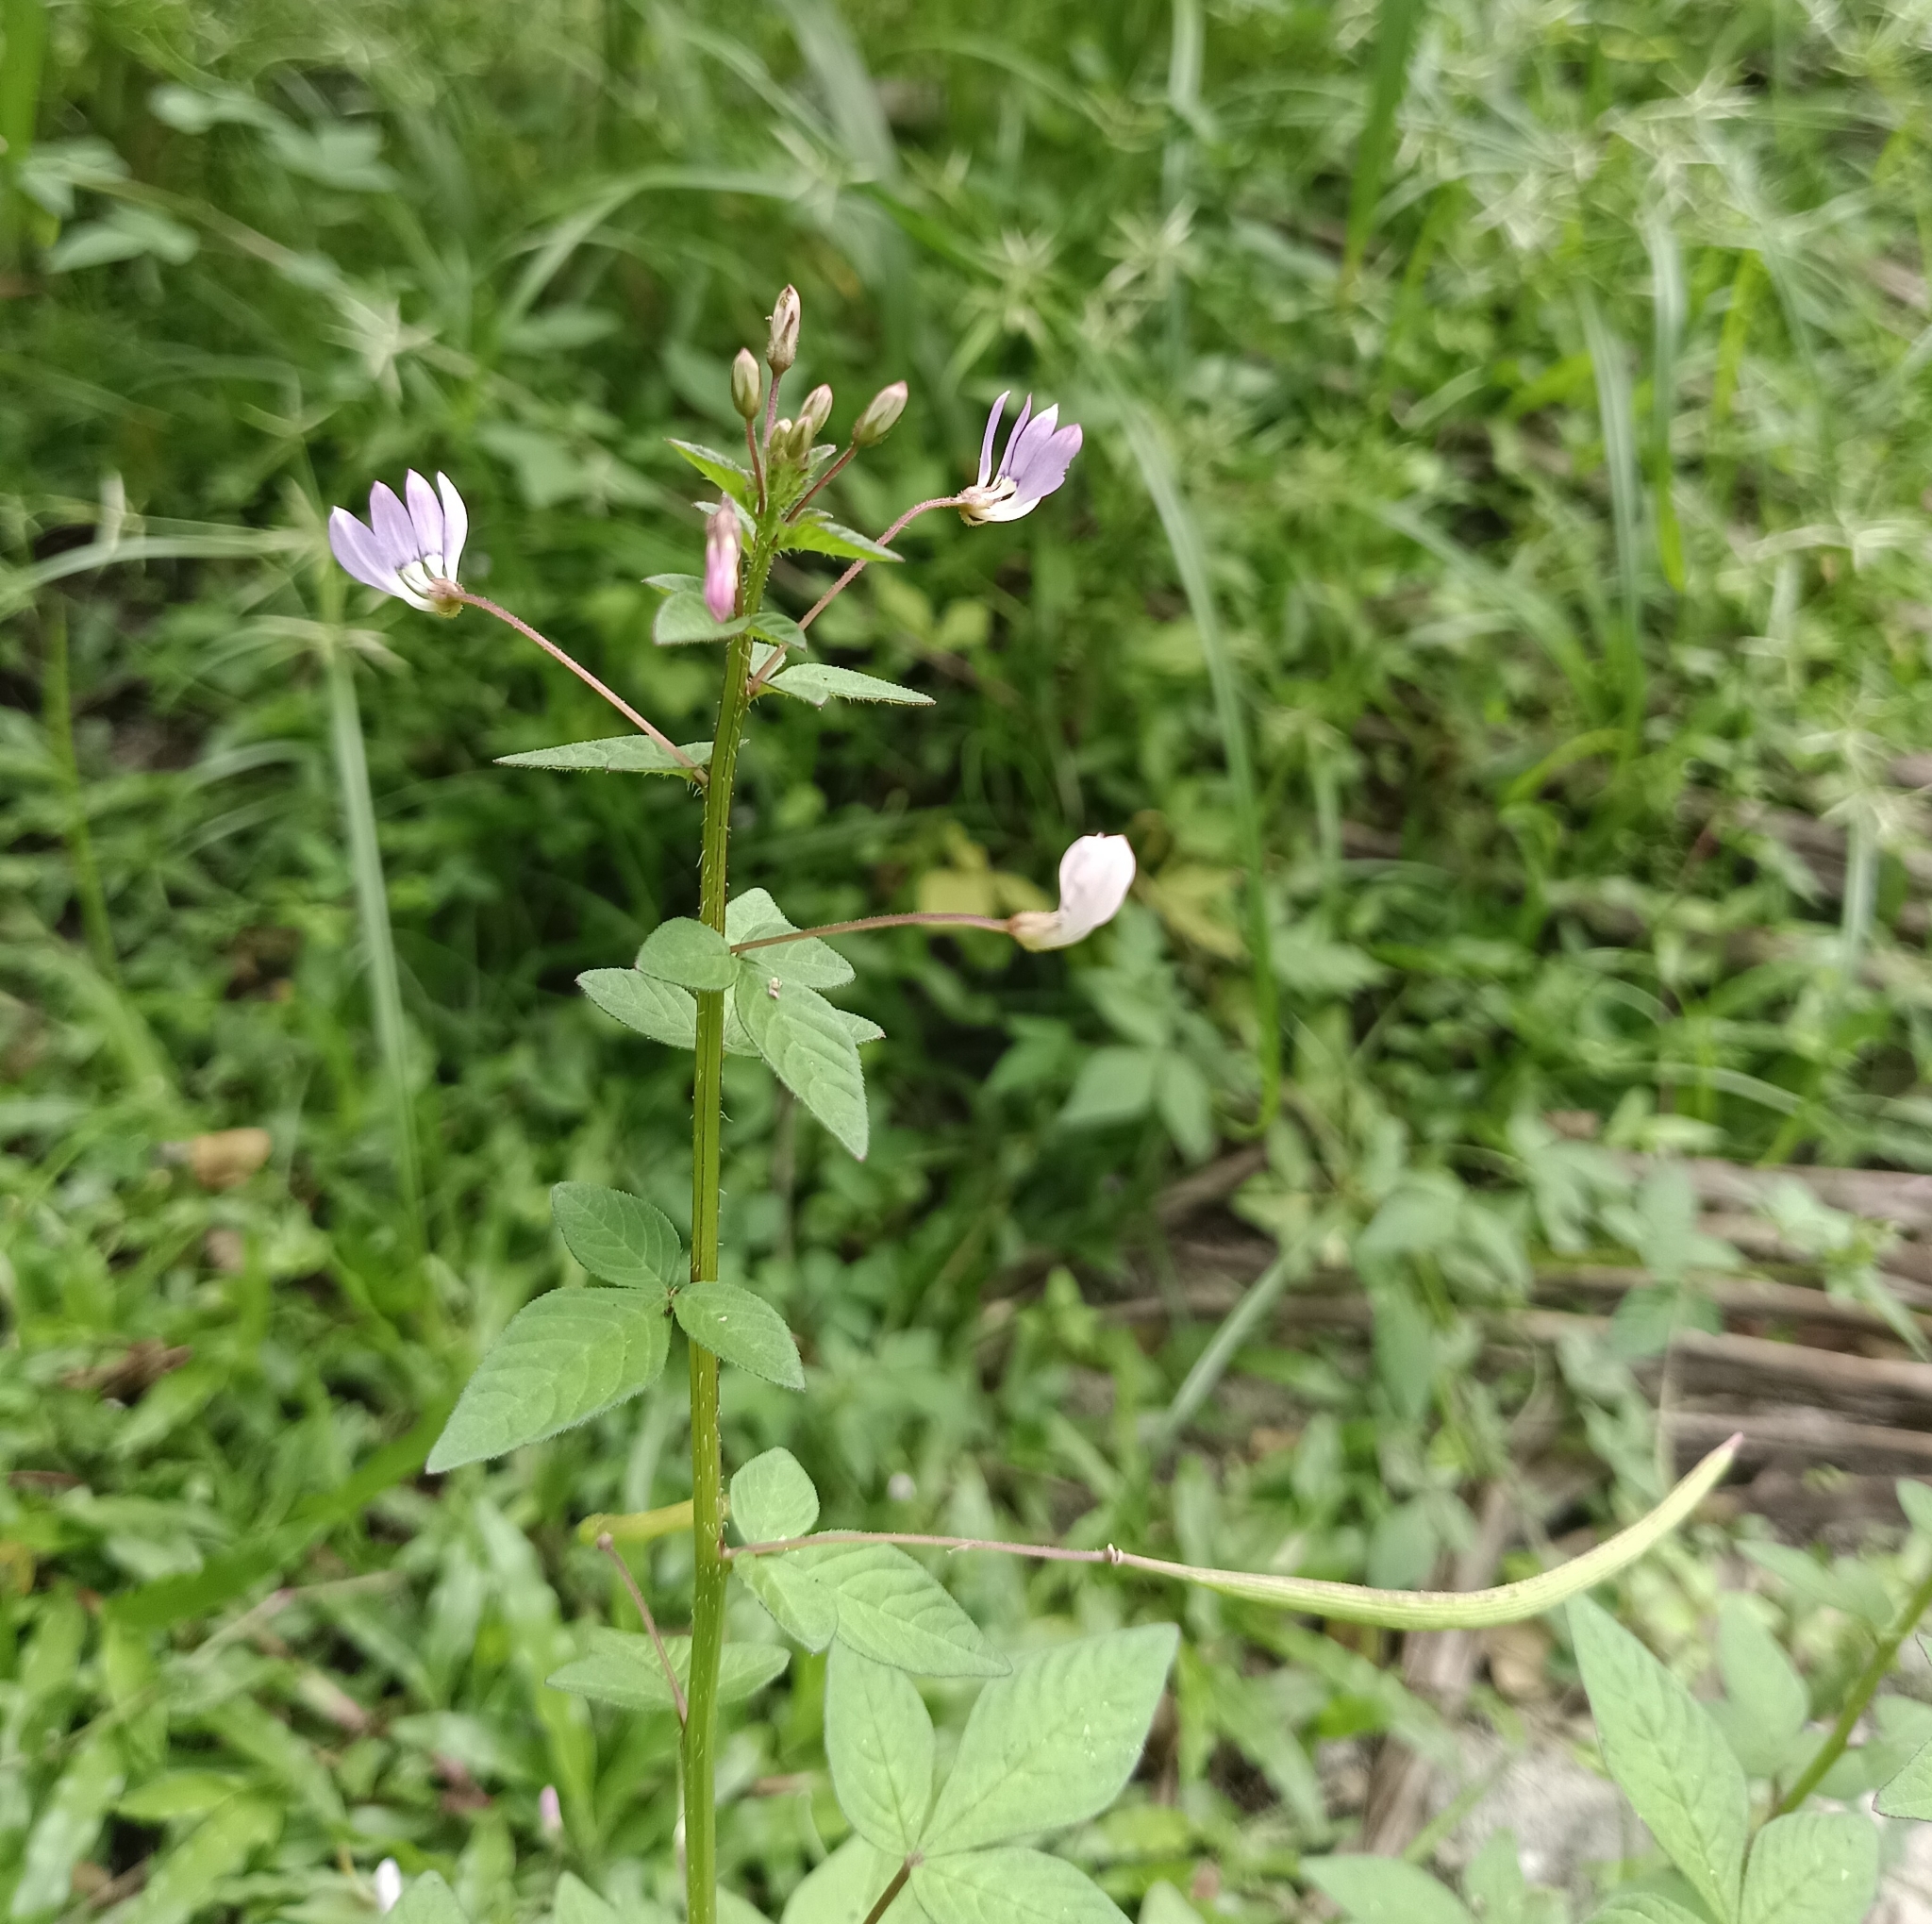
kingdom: Plantae
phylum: Tracheophyta
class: Magnoliopsida
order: Brassicales
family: Cleomaceae
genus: Sieruela
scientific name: Sieruela rutidosperma
